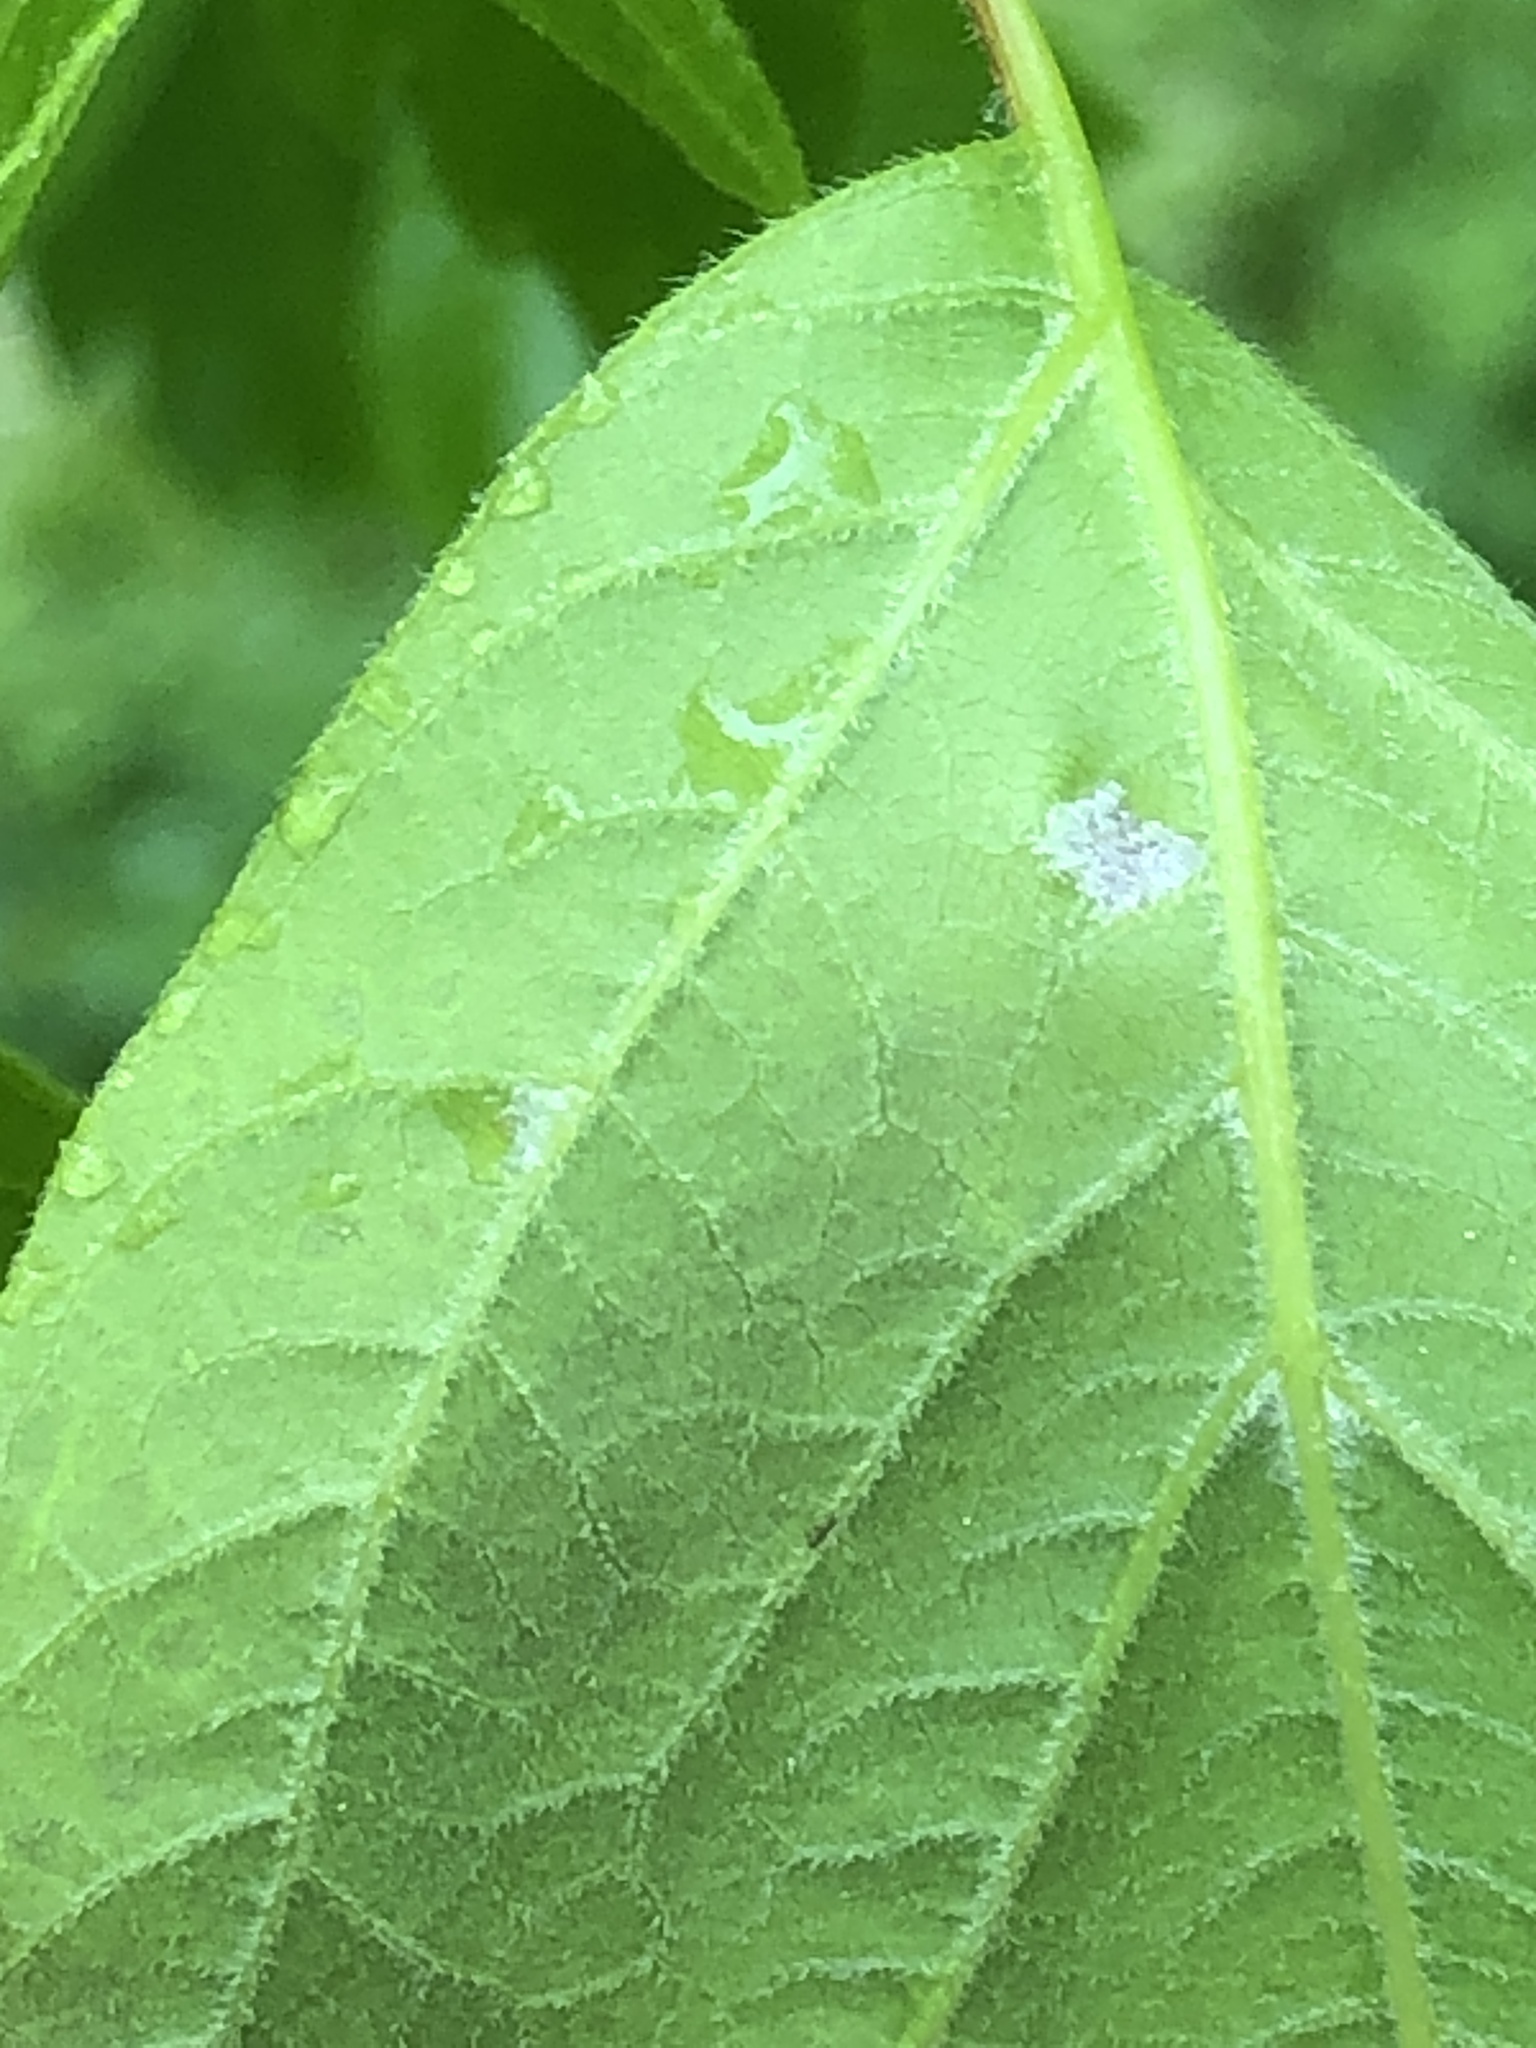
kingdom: Animalia
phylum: Arthropoda
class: Arachnida
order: Trombidiformes
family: Eriophyidae
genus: Aceria
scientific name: Aceria
